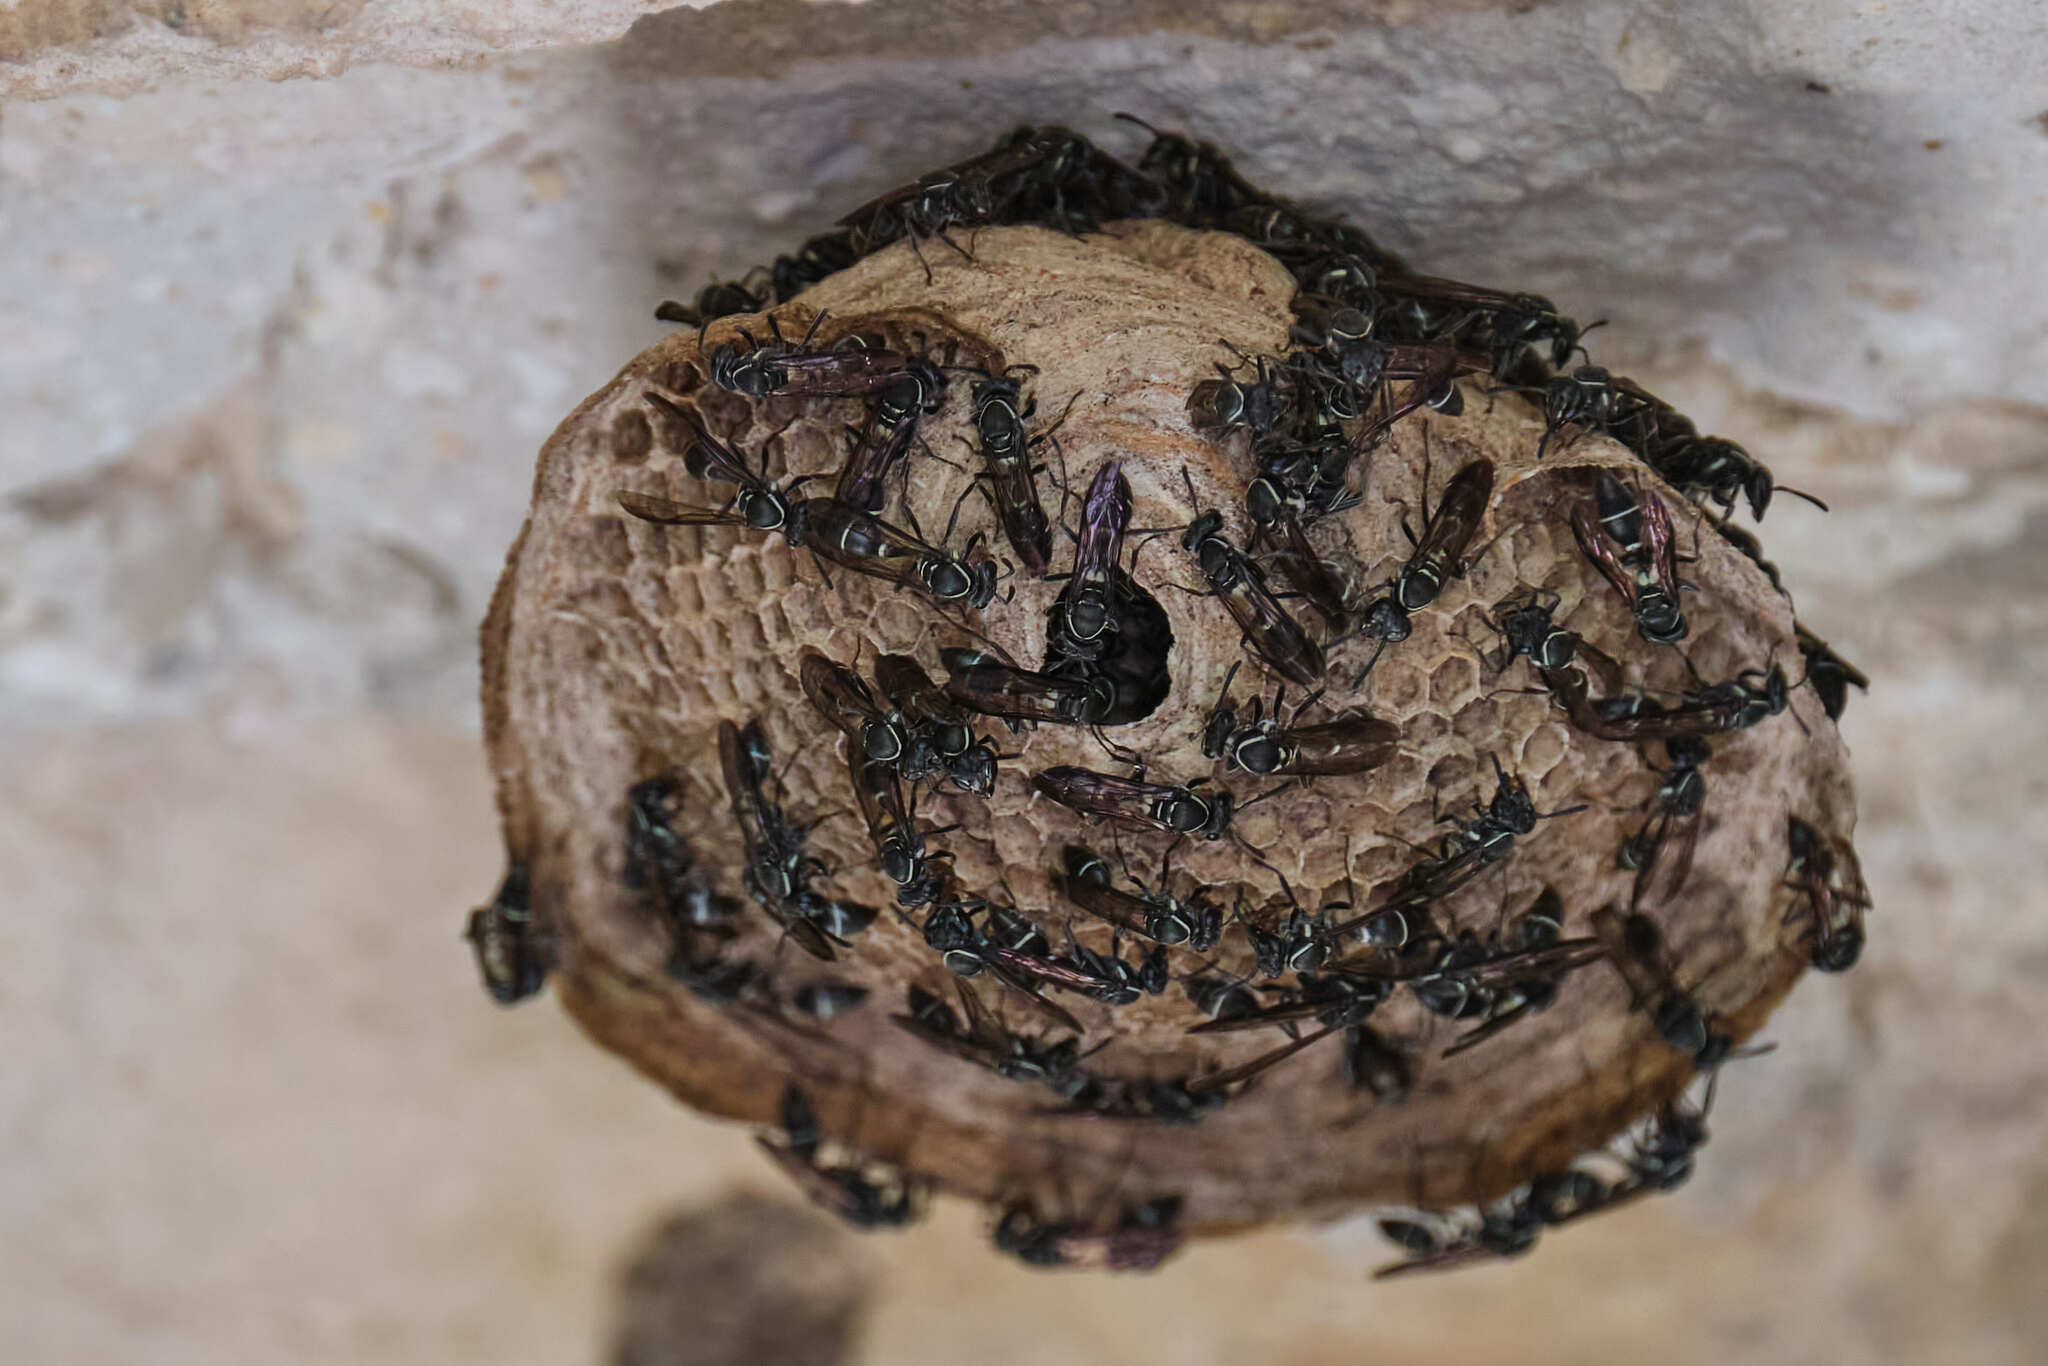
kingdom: Animalia
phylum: Arthropoda
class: Insecta
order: Hymenoptera
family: Eumenidae
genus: Polybia
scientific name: Polybia plebeja
